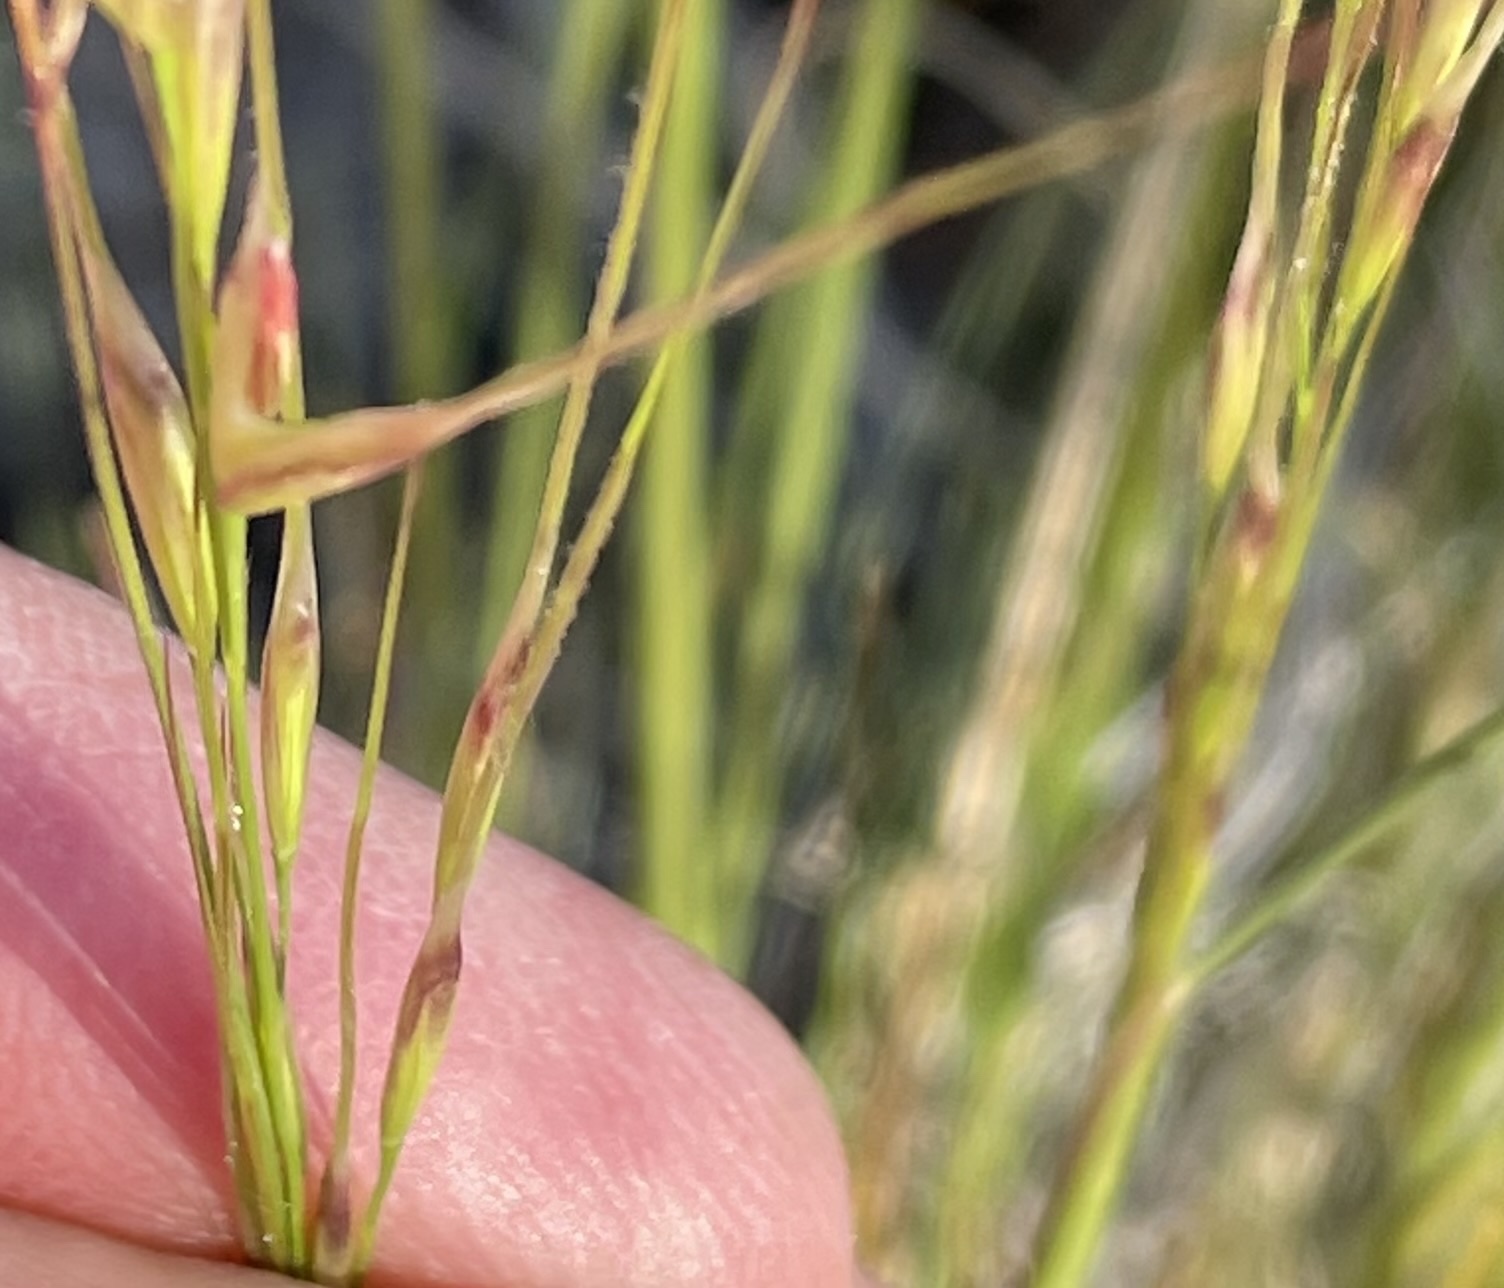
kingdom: Plantae
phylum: Tracheophyta
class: Liliopsida
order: Poales
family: Poaceae
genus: Hesperostipa
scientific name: Hesperostipa comata
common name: Needle-and-thread grass
